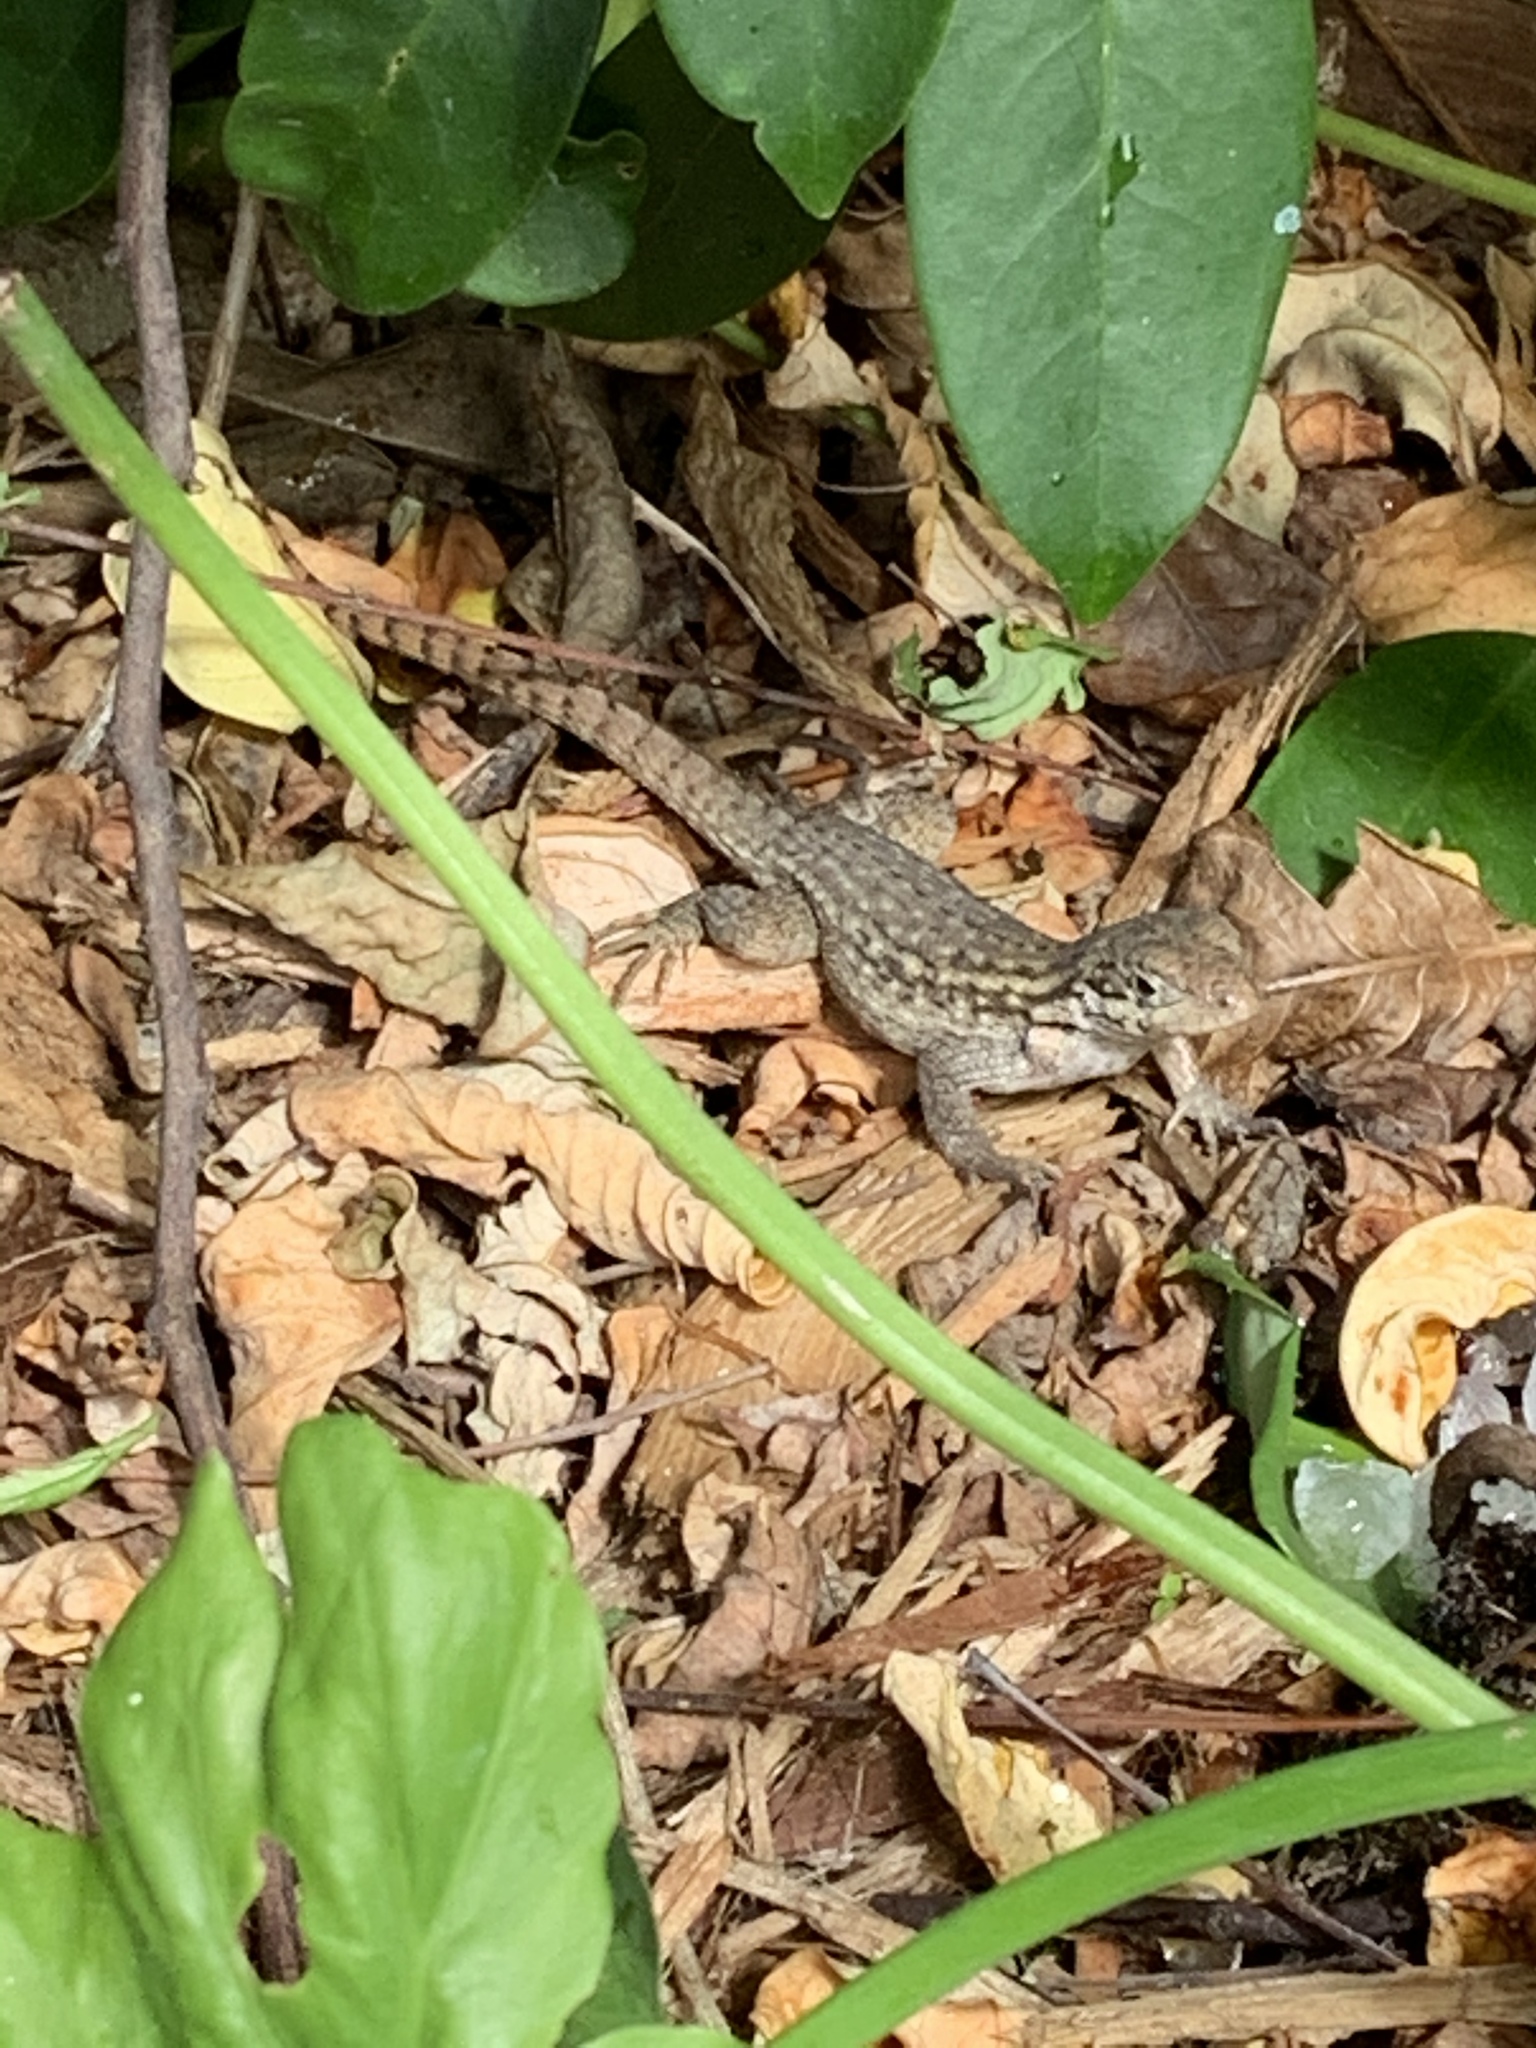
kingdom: Animalia
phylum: Chordata
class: Squamata
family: Leiocephalidae
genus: Leiocephalus
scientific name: Leiocephalus carinatus
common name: Northern curly-tailed lizard
